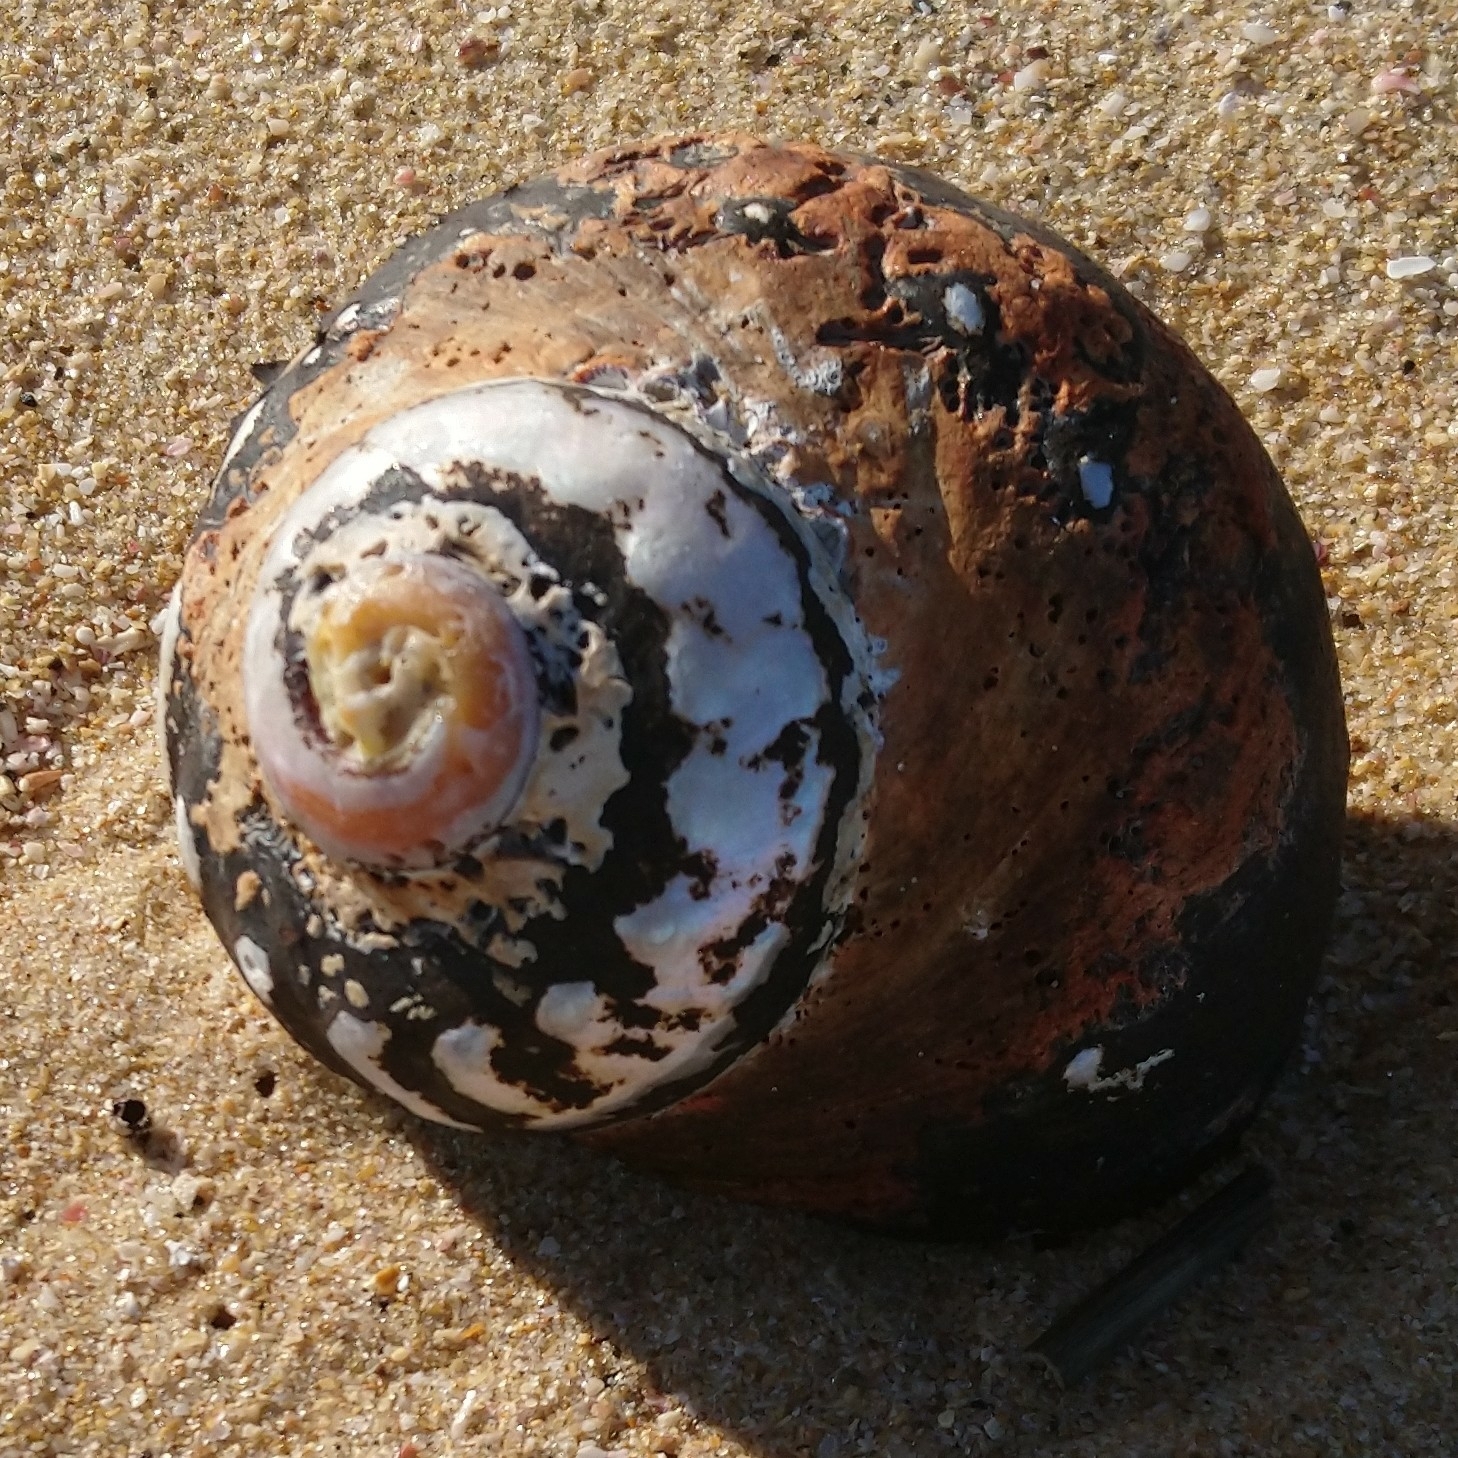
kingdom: Animalia
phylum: Mollusca
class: Gastropoda
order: Trochida
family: Turbinidae
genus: Turbo
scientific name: Turbo sarmaticus
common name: South african turban
